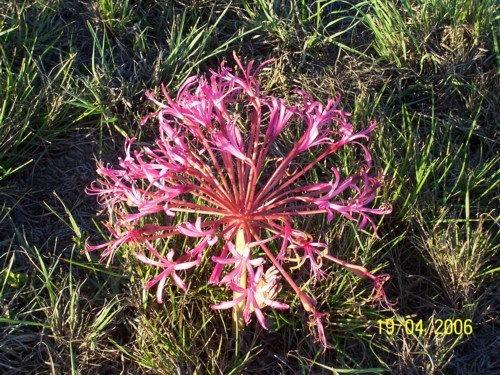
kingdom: Plantae
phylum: Tracheophyta
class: Liliopsida
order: Asparagales
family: Amaryllidaceae
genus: Brunsvigia
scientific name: Brunsvigia gregaria
